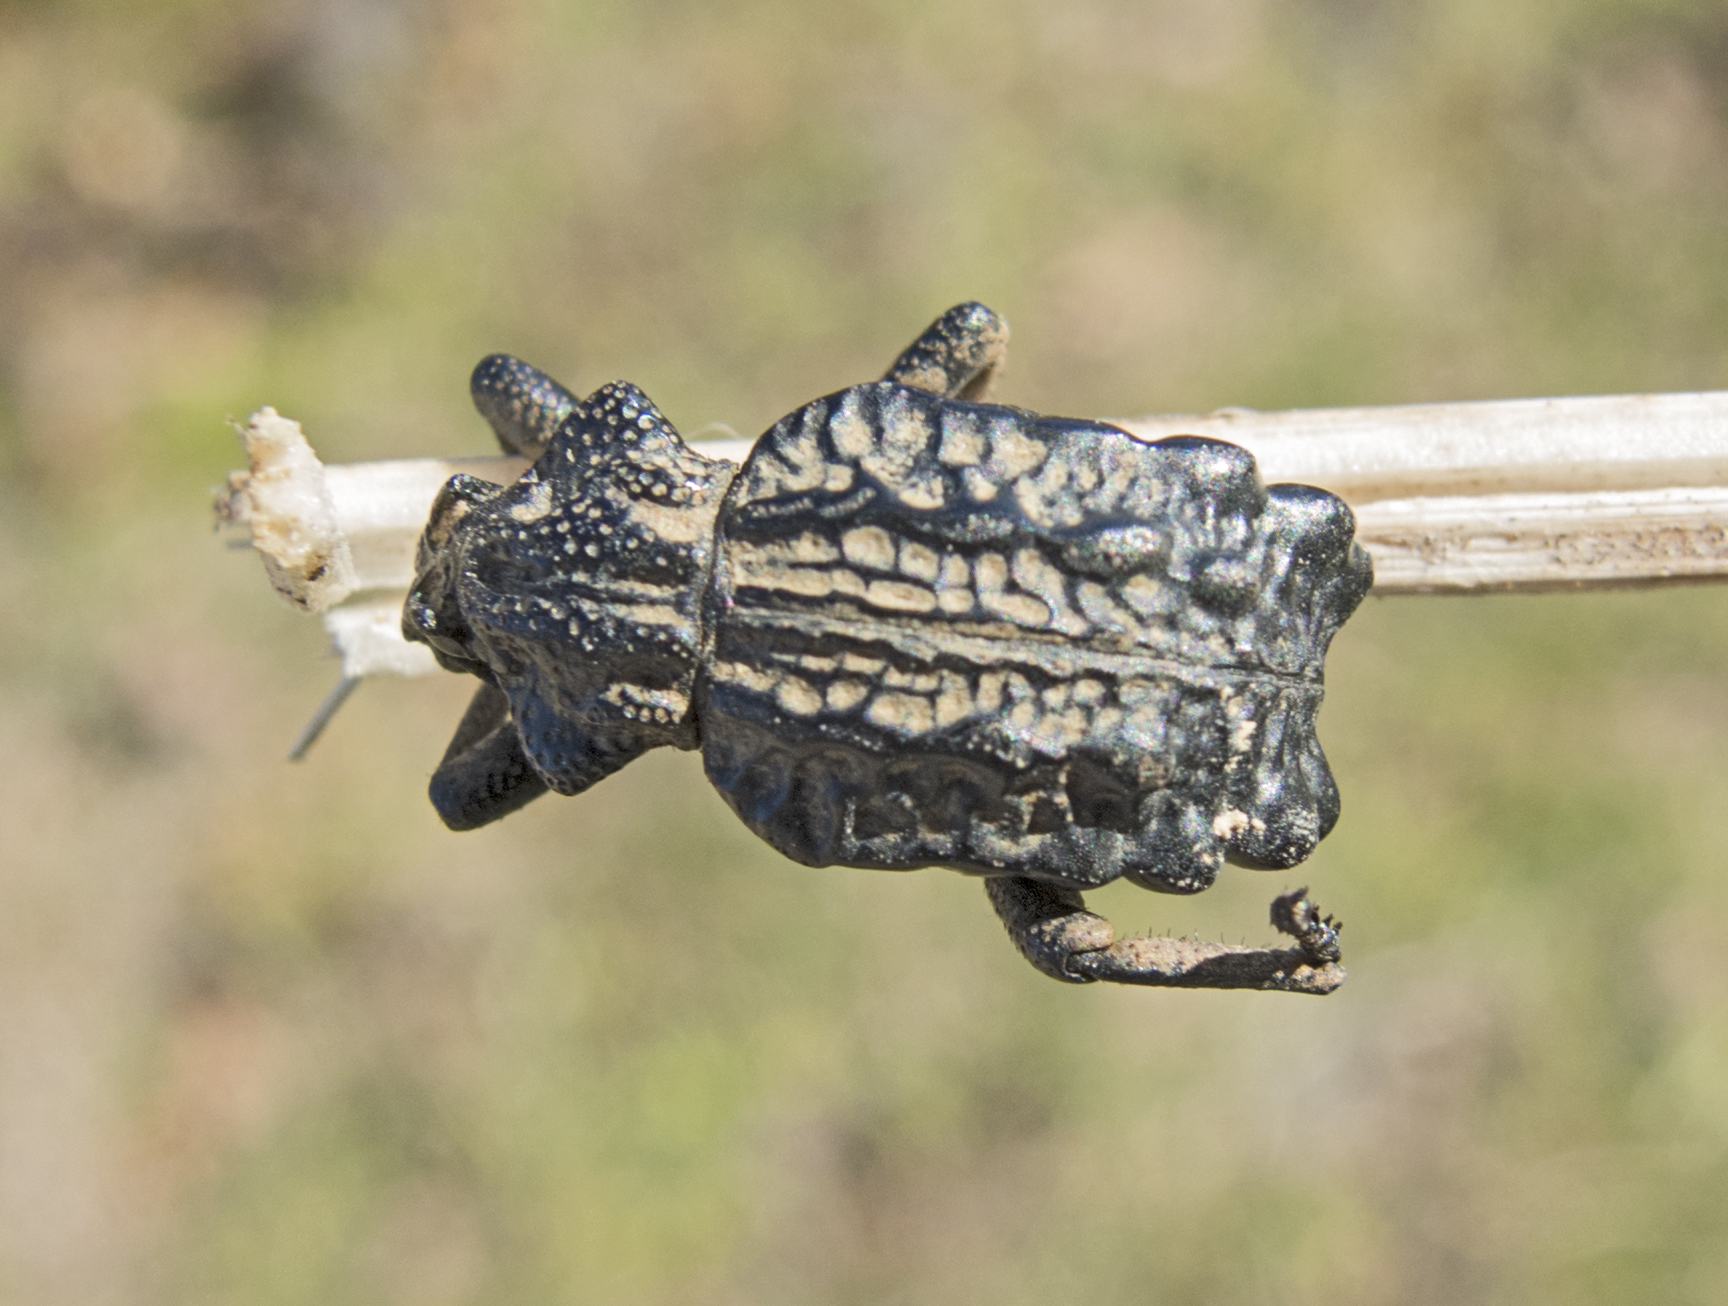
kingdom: Animalia
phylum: Arthropoda
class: Insecta
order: Coleoptera
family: Brachyceridae
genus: Brachycerus
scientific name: Brachycerus undatus
